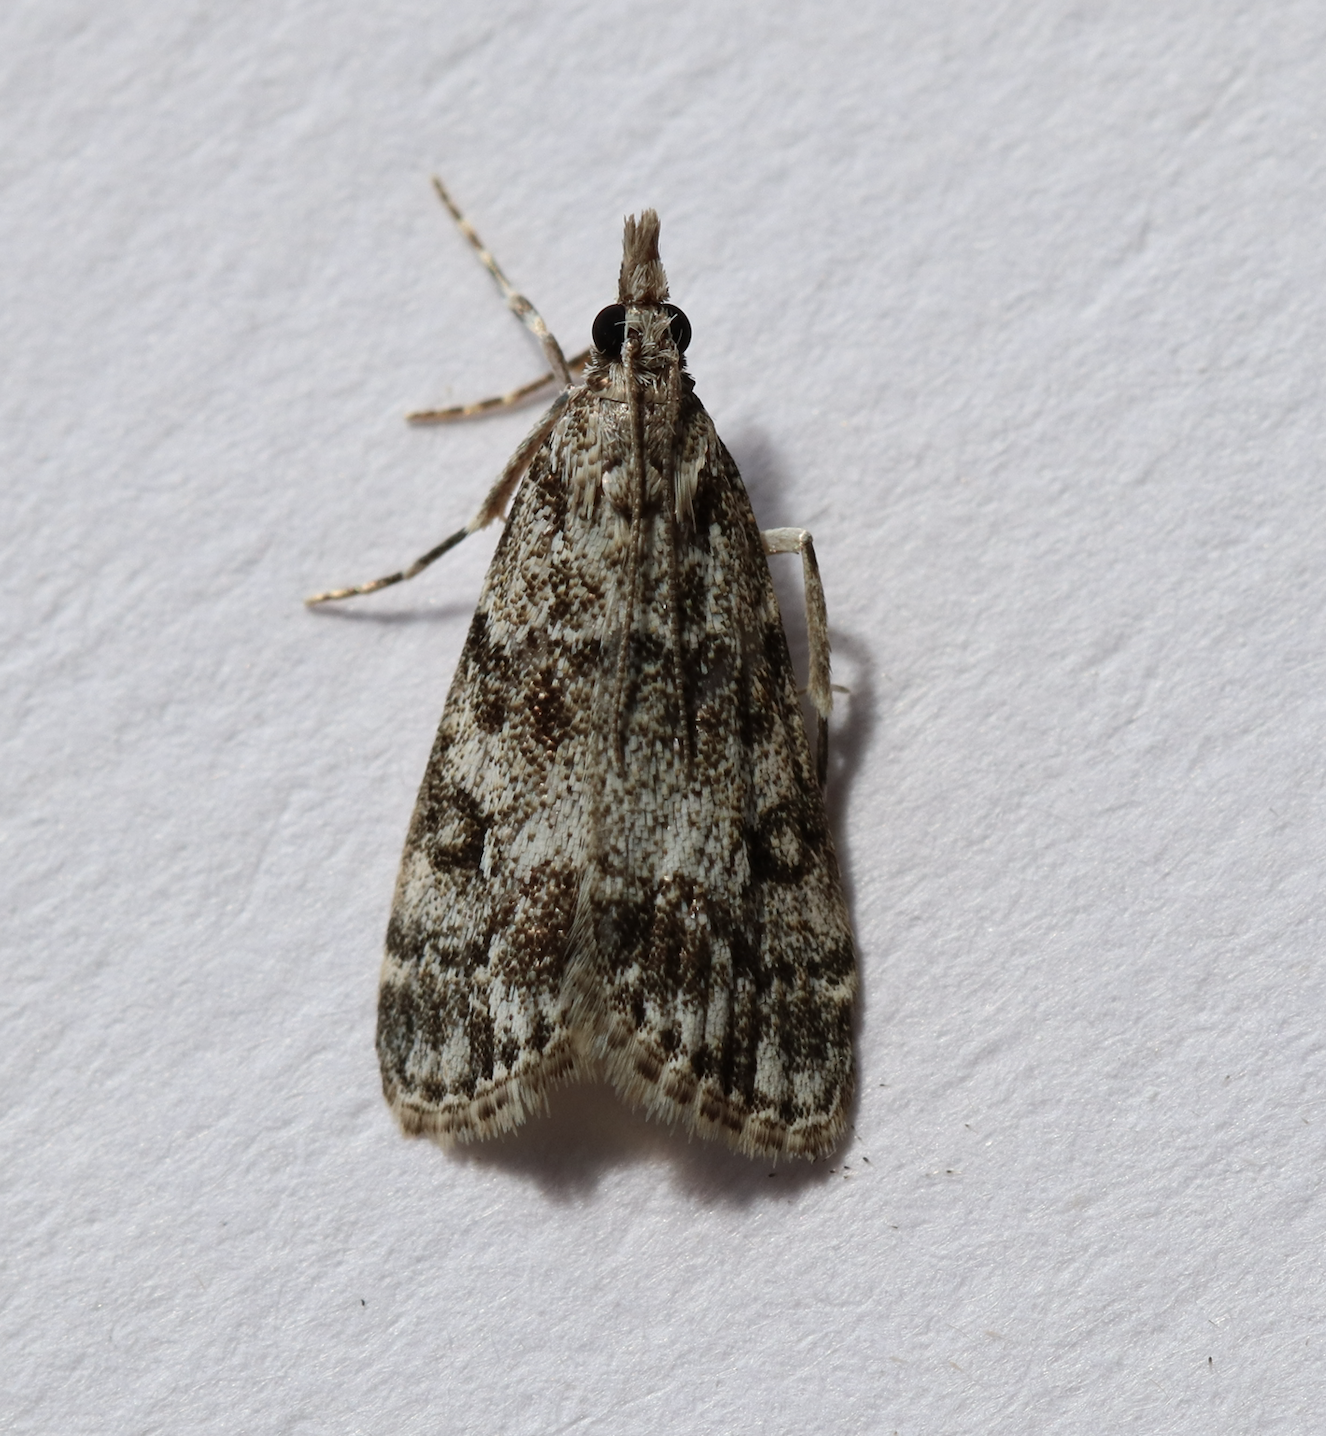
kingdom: Animalia
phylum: Arthropoda
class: Insecta
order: Lepidoptera
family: Crambidae
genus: Eudonia
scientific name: Eudonia lacustrata
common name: Little grey
